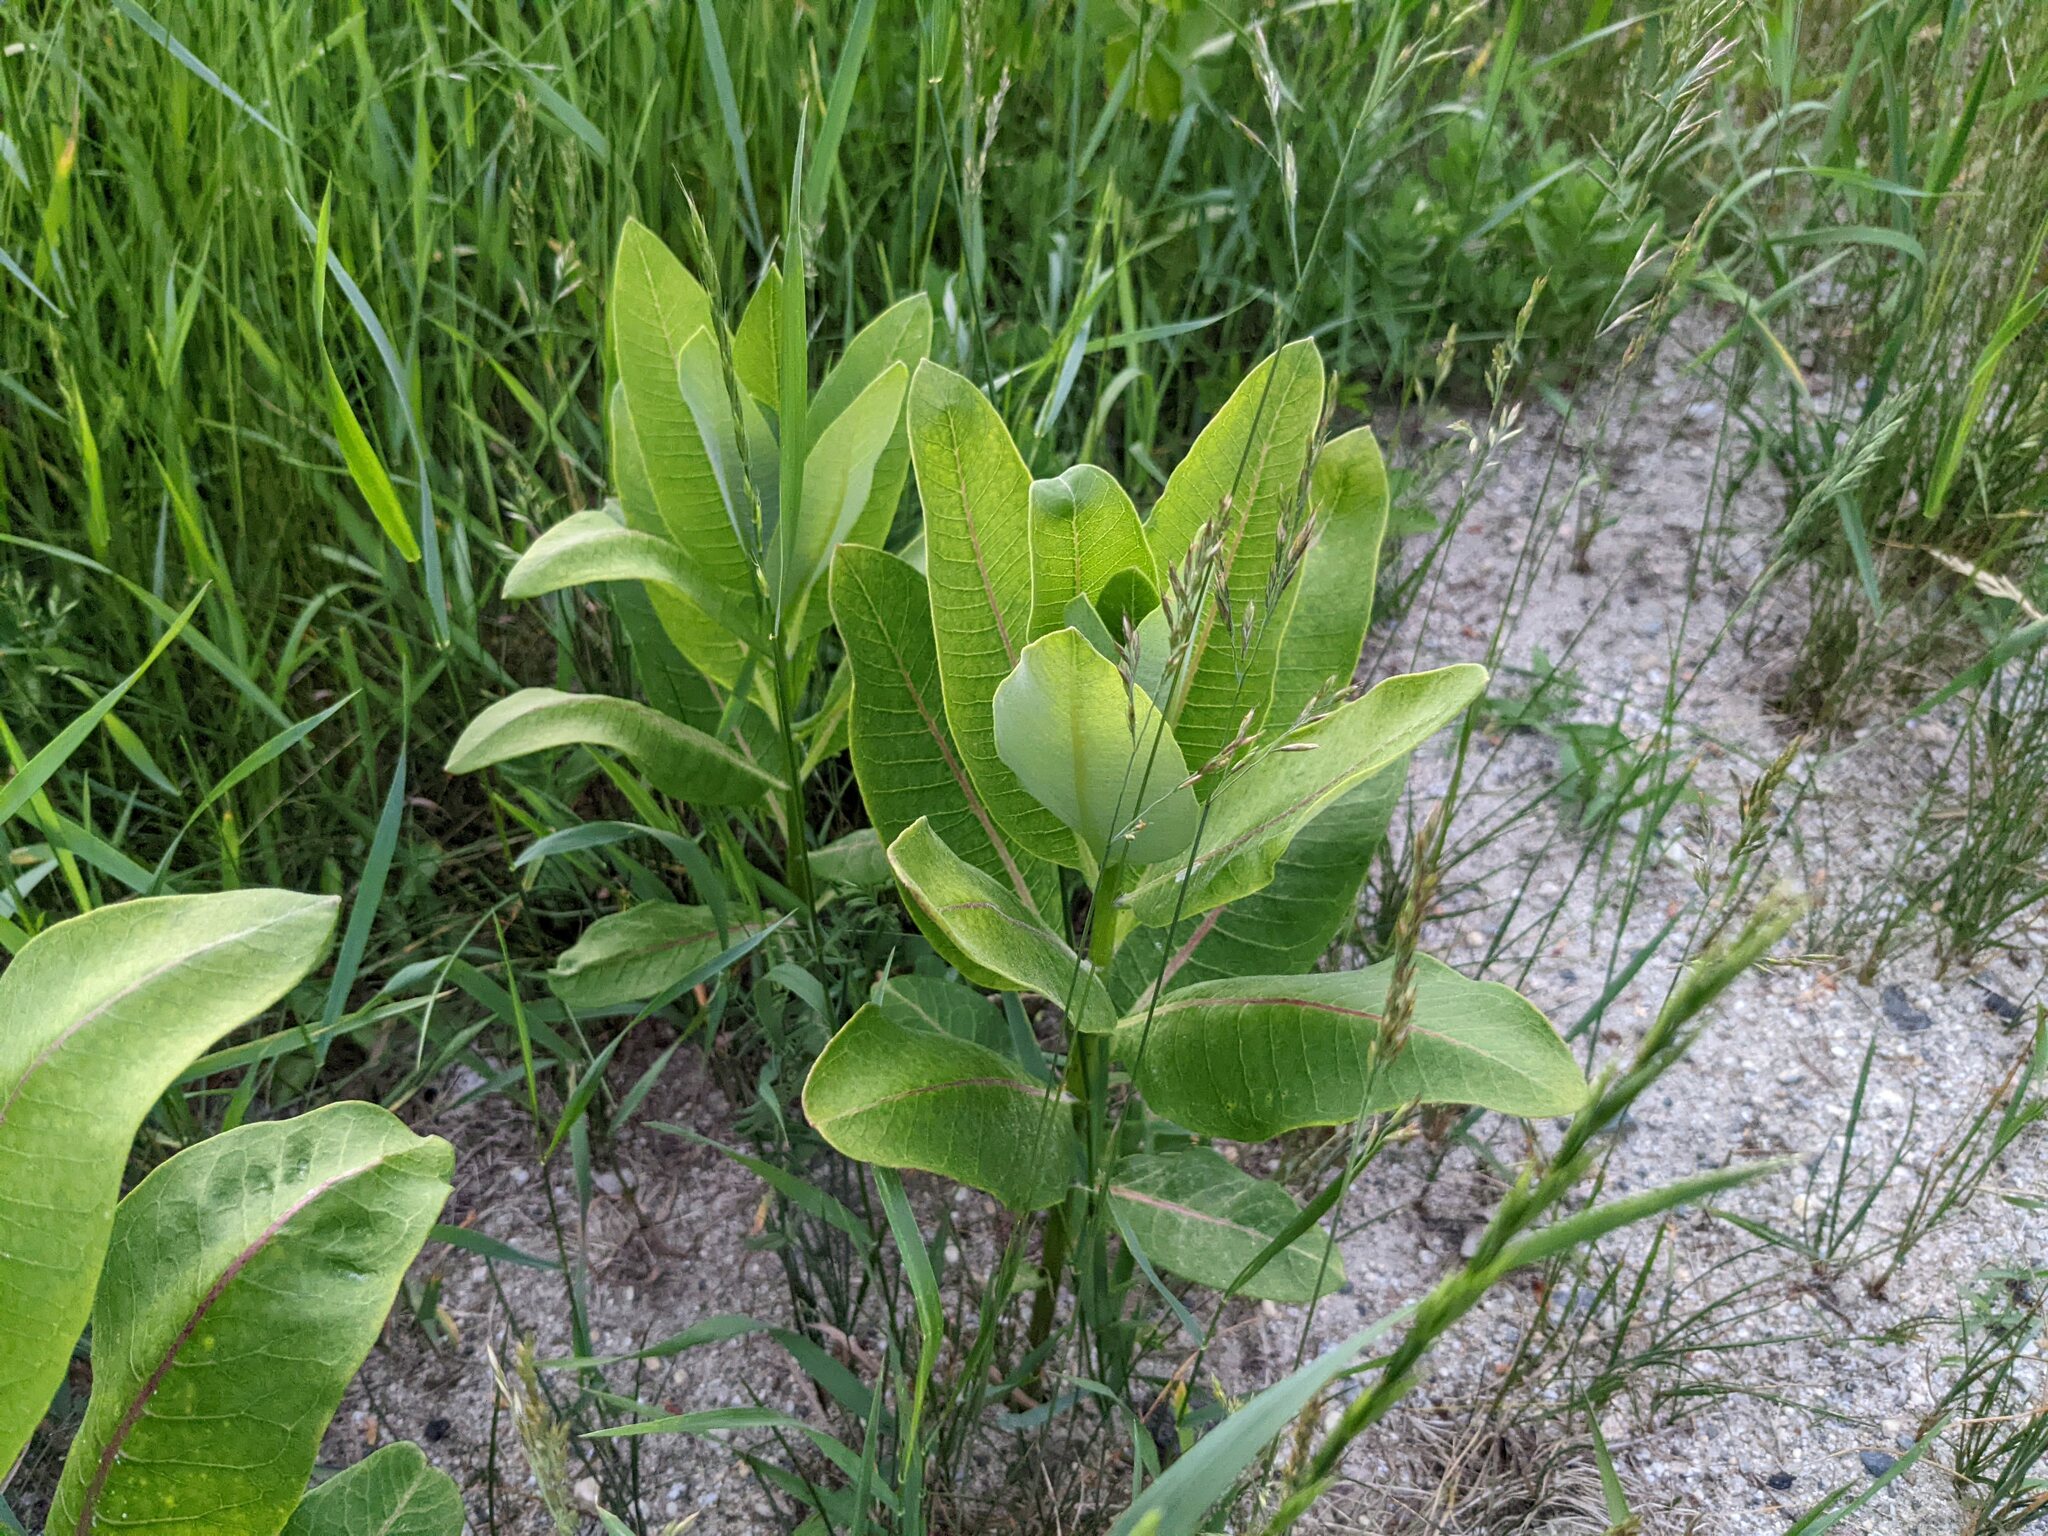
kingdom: Plantae
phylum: Tracheophyta
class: Magnoliopsida
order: Gentianales
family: Apocynaceae
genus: Asclepias
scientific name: Asclepias syriaca
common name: Common milkweed
